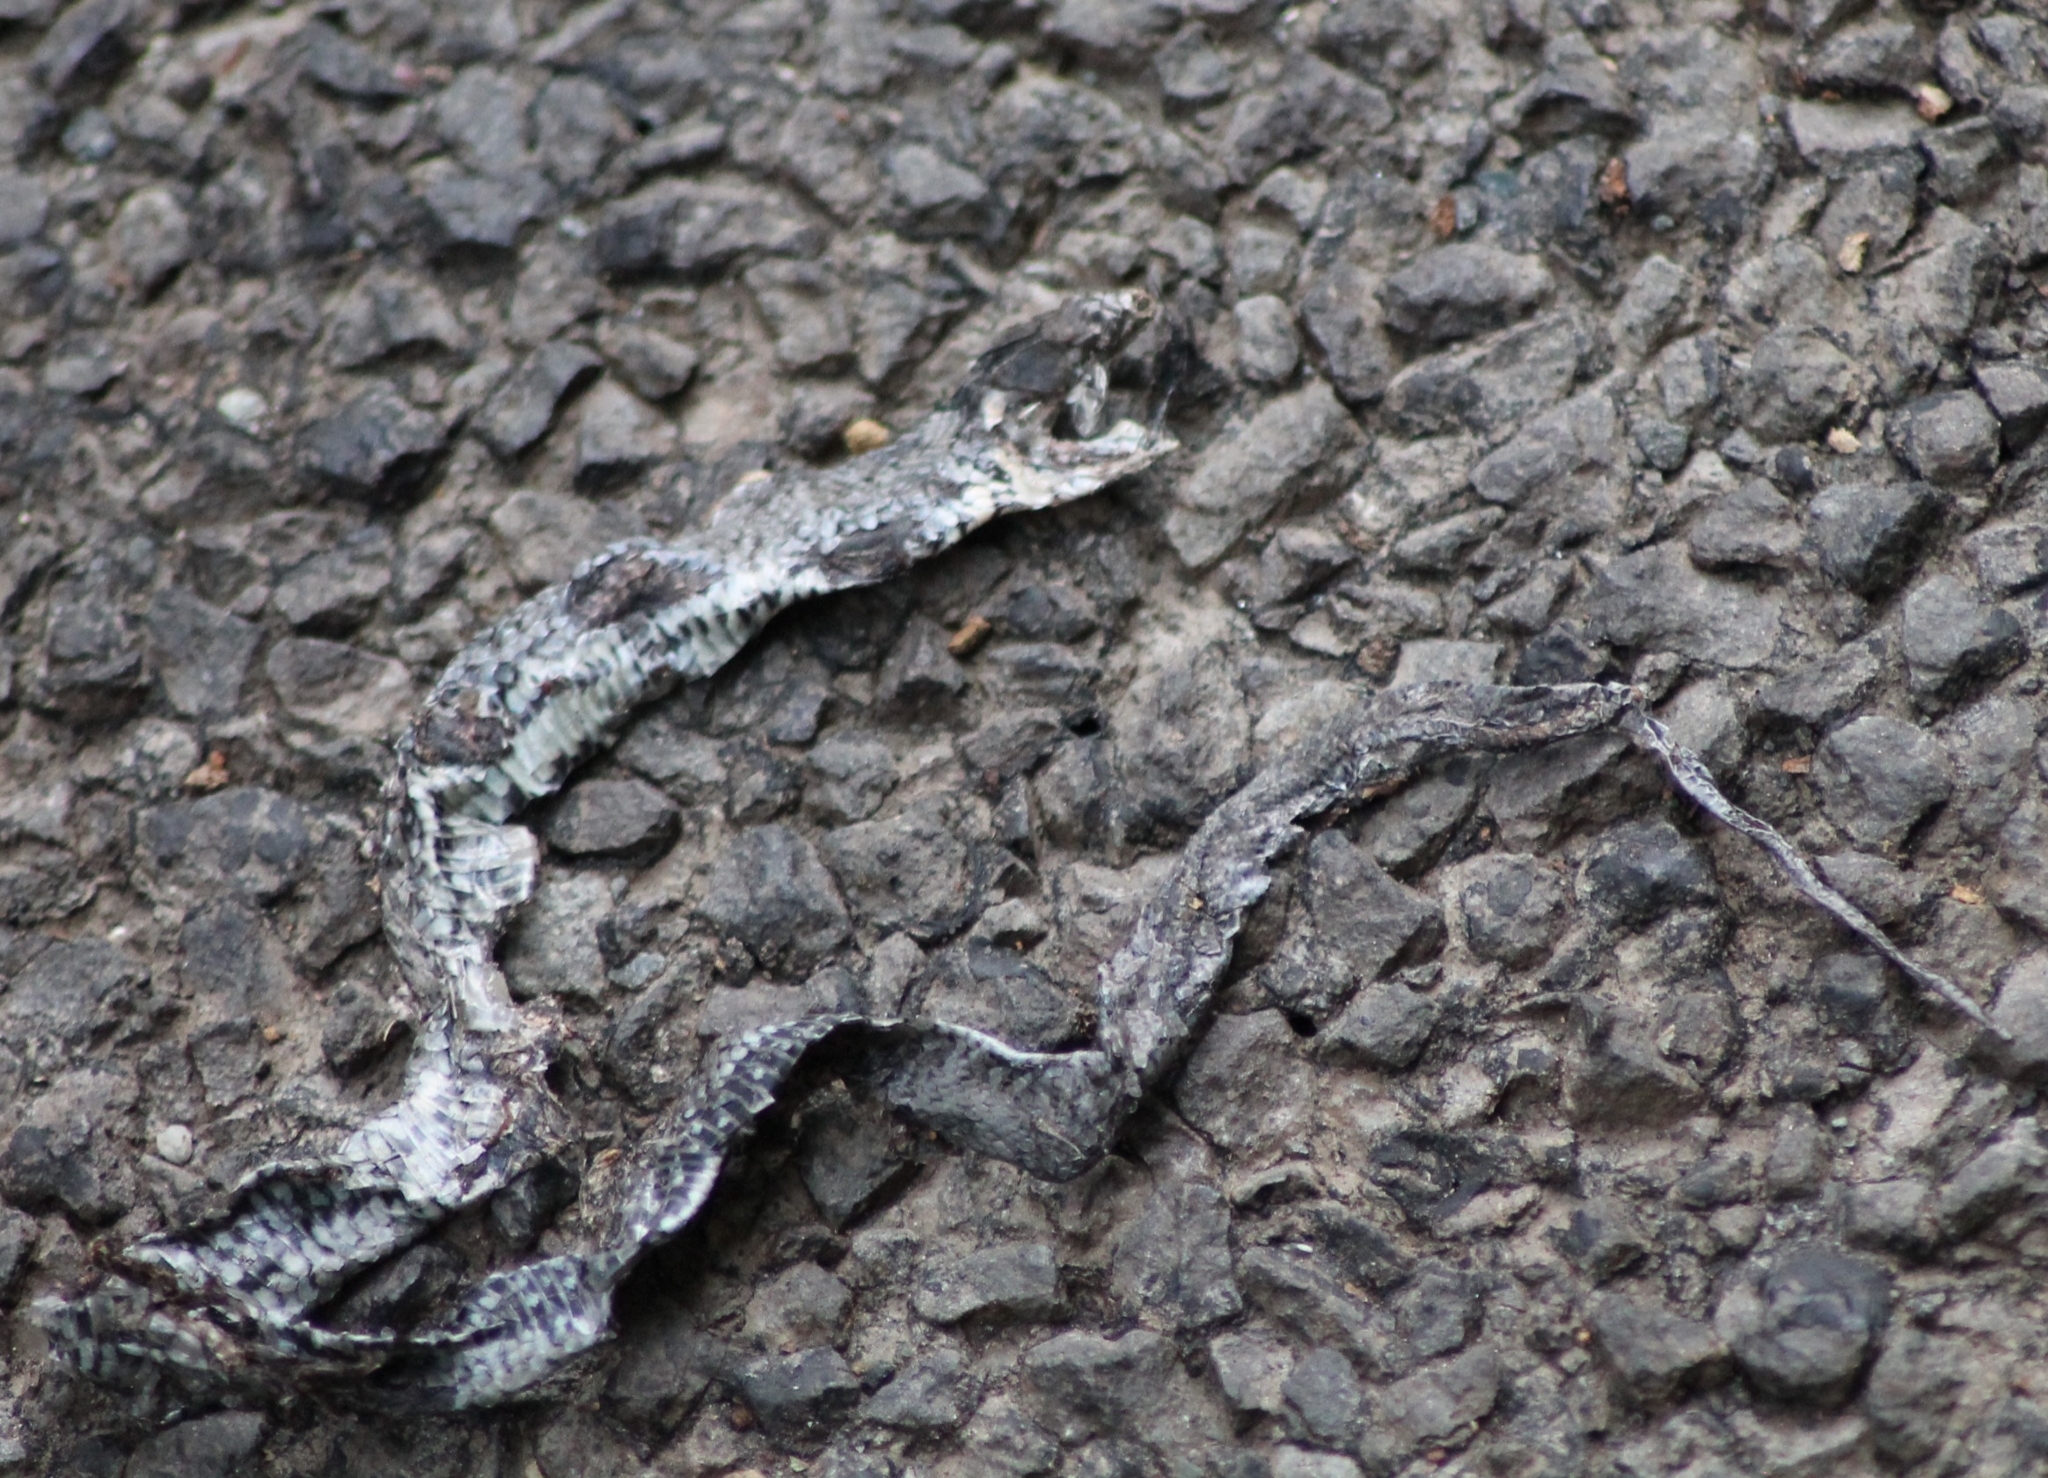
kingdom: Animalia
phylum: Chordata
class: Squamata
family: Colubridae
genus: Natrix
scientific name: Natrix natrix
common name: Grass snake
